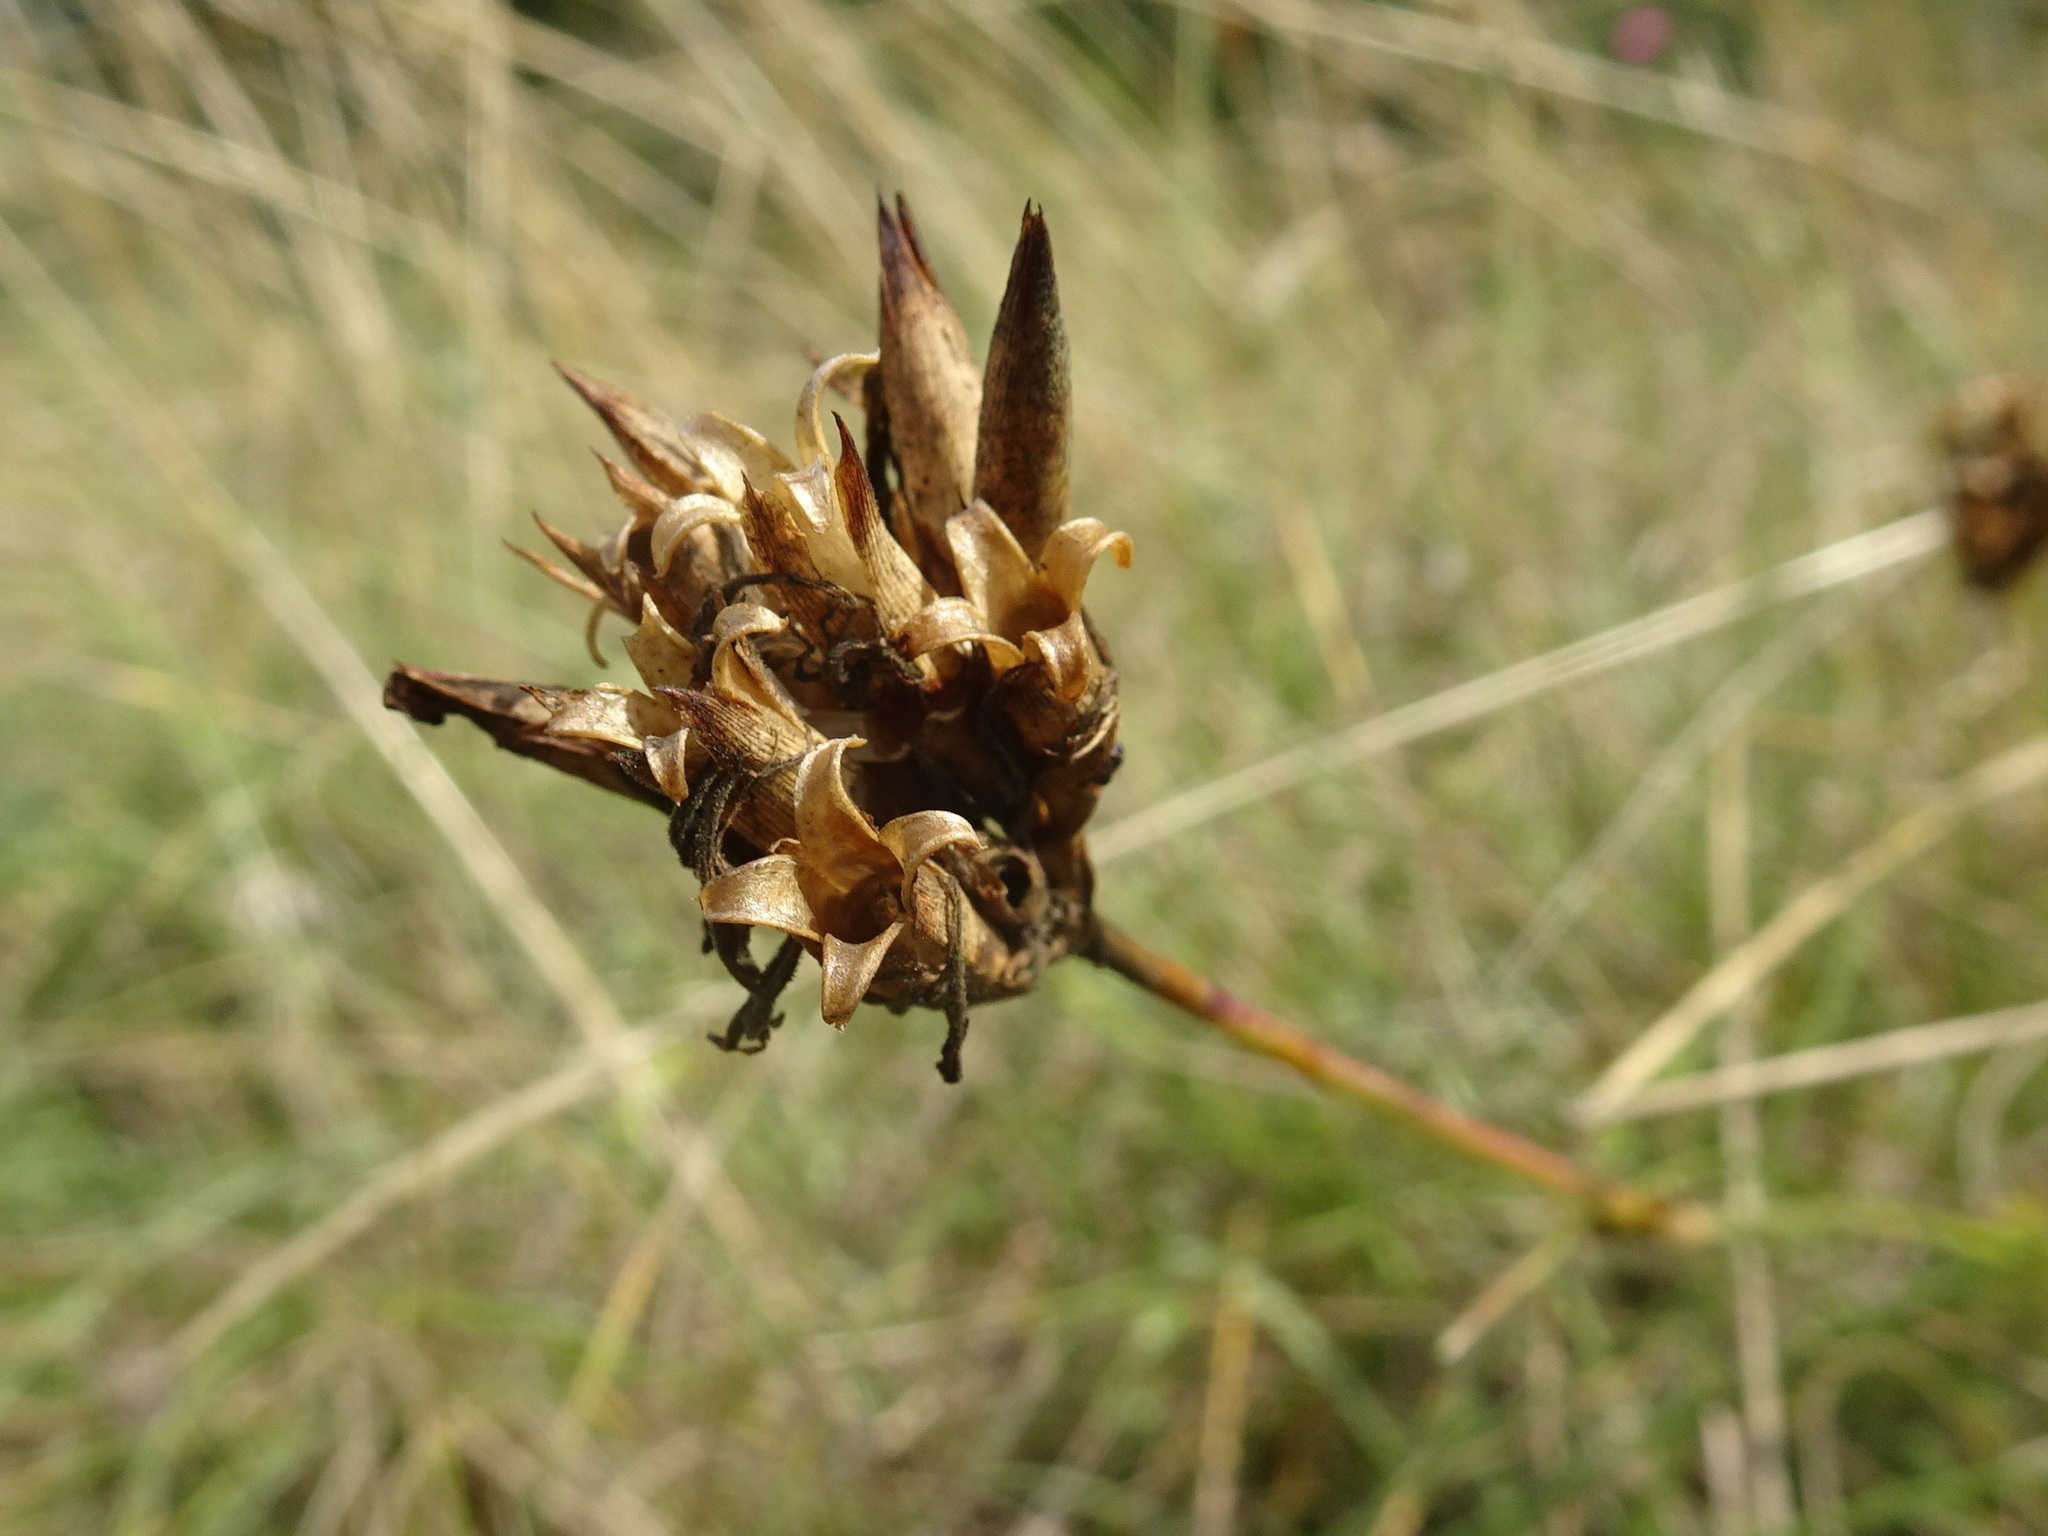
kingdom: Plantae
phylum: Tracheophyta
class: Magnoliopsida
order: Caryophyllales
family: Caryophyllaceae
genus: Dianthus
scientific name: Dianthus carthusianorum
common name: Carthusian pink
